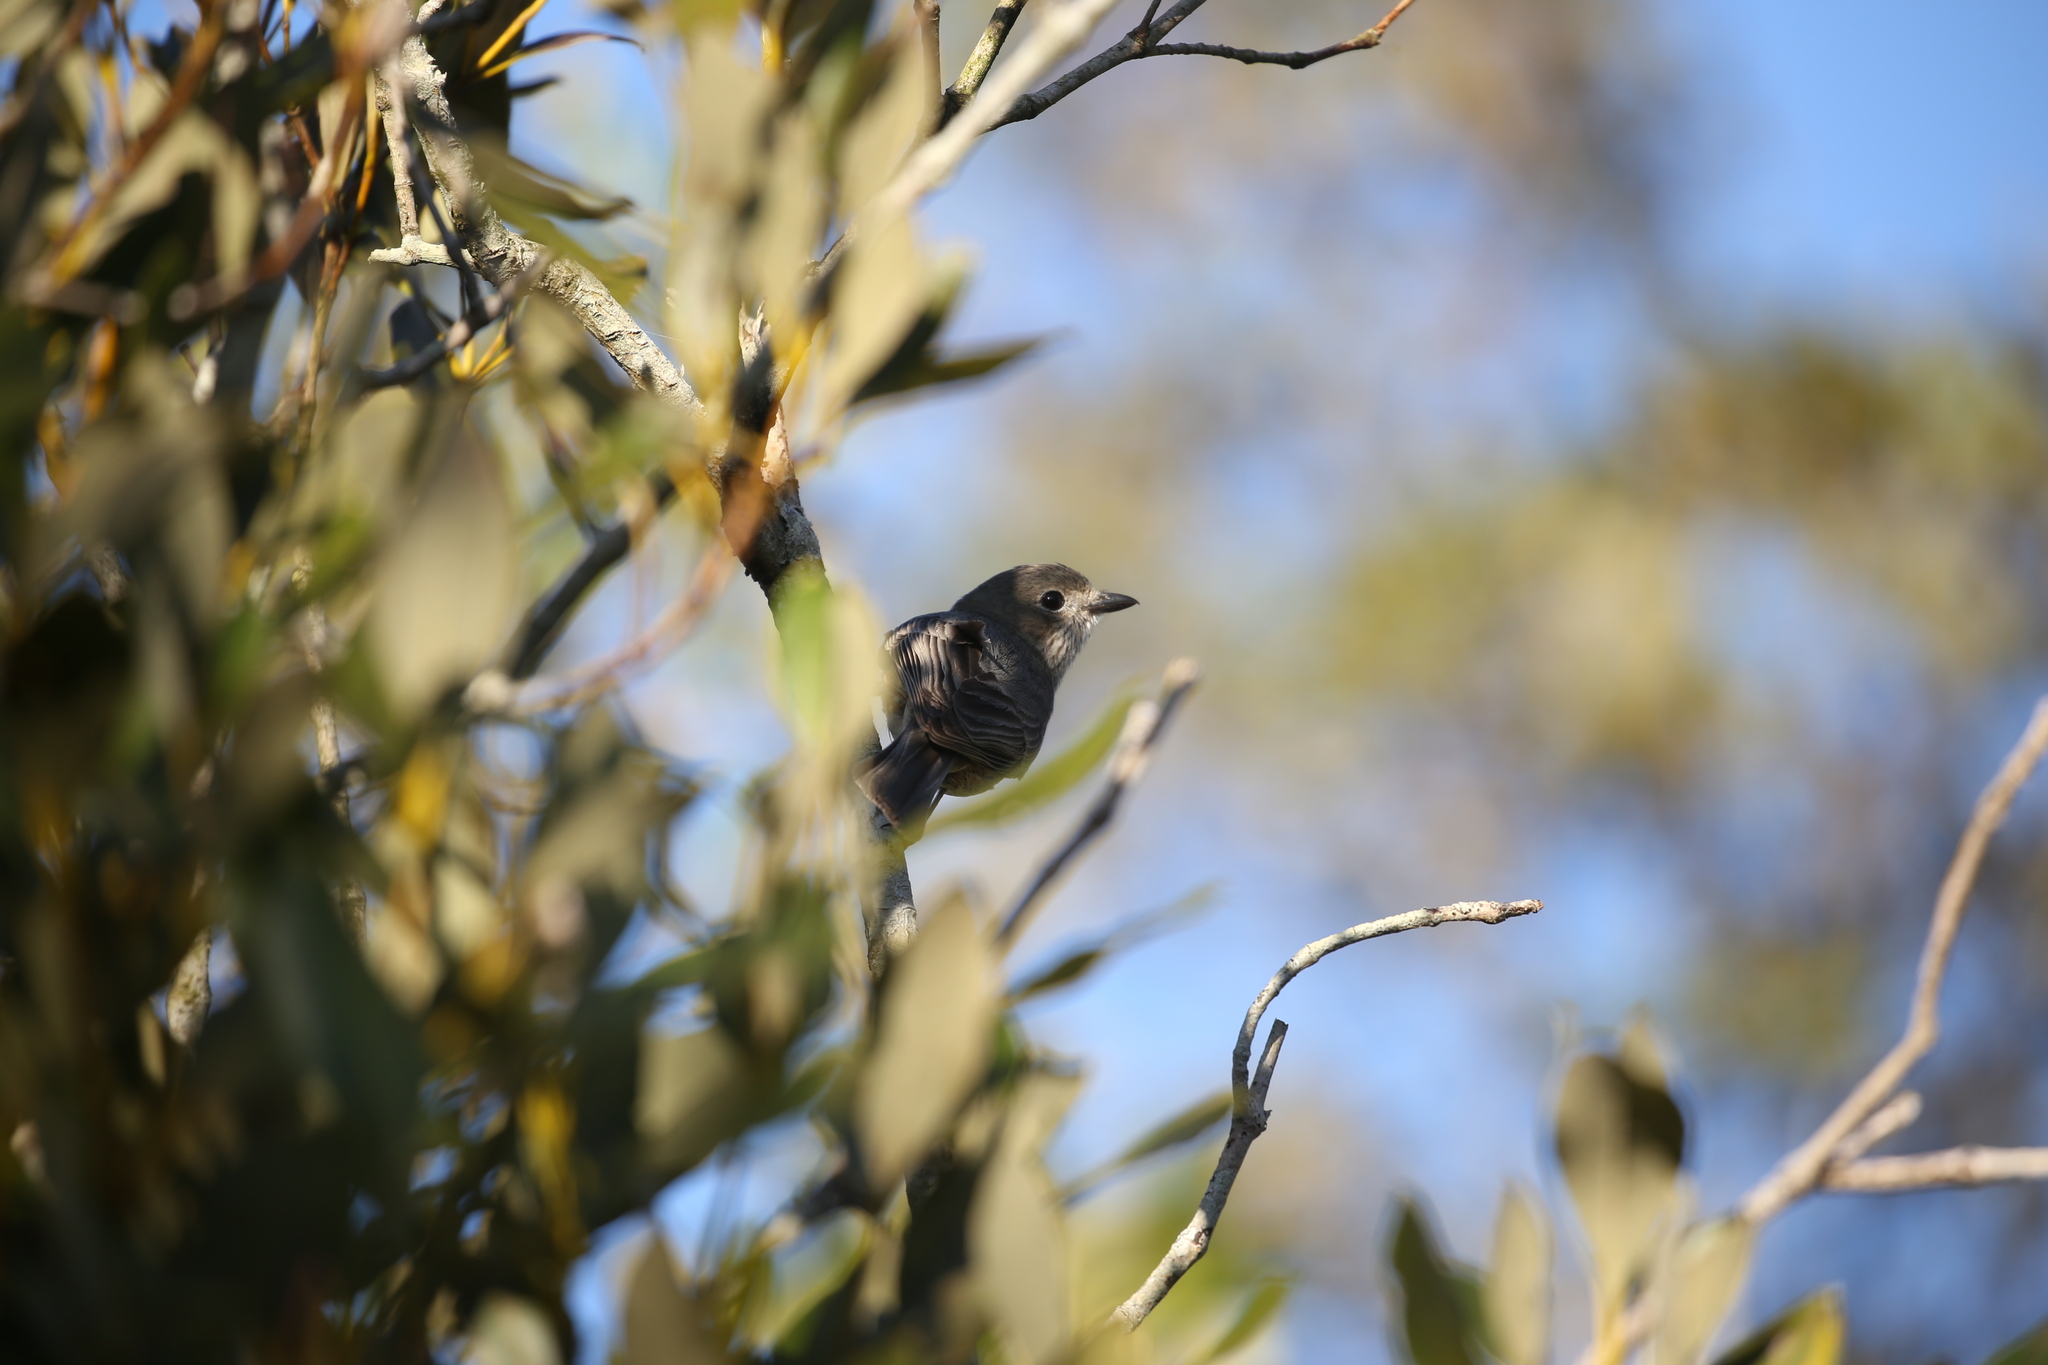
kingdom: Animalia
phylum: Chordata
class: Aves
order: Passeriformes
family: Pachycephalidae
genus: Pachycephala
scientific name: Pachycephala rufiventris
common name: Rufous whistler
